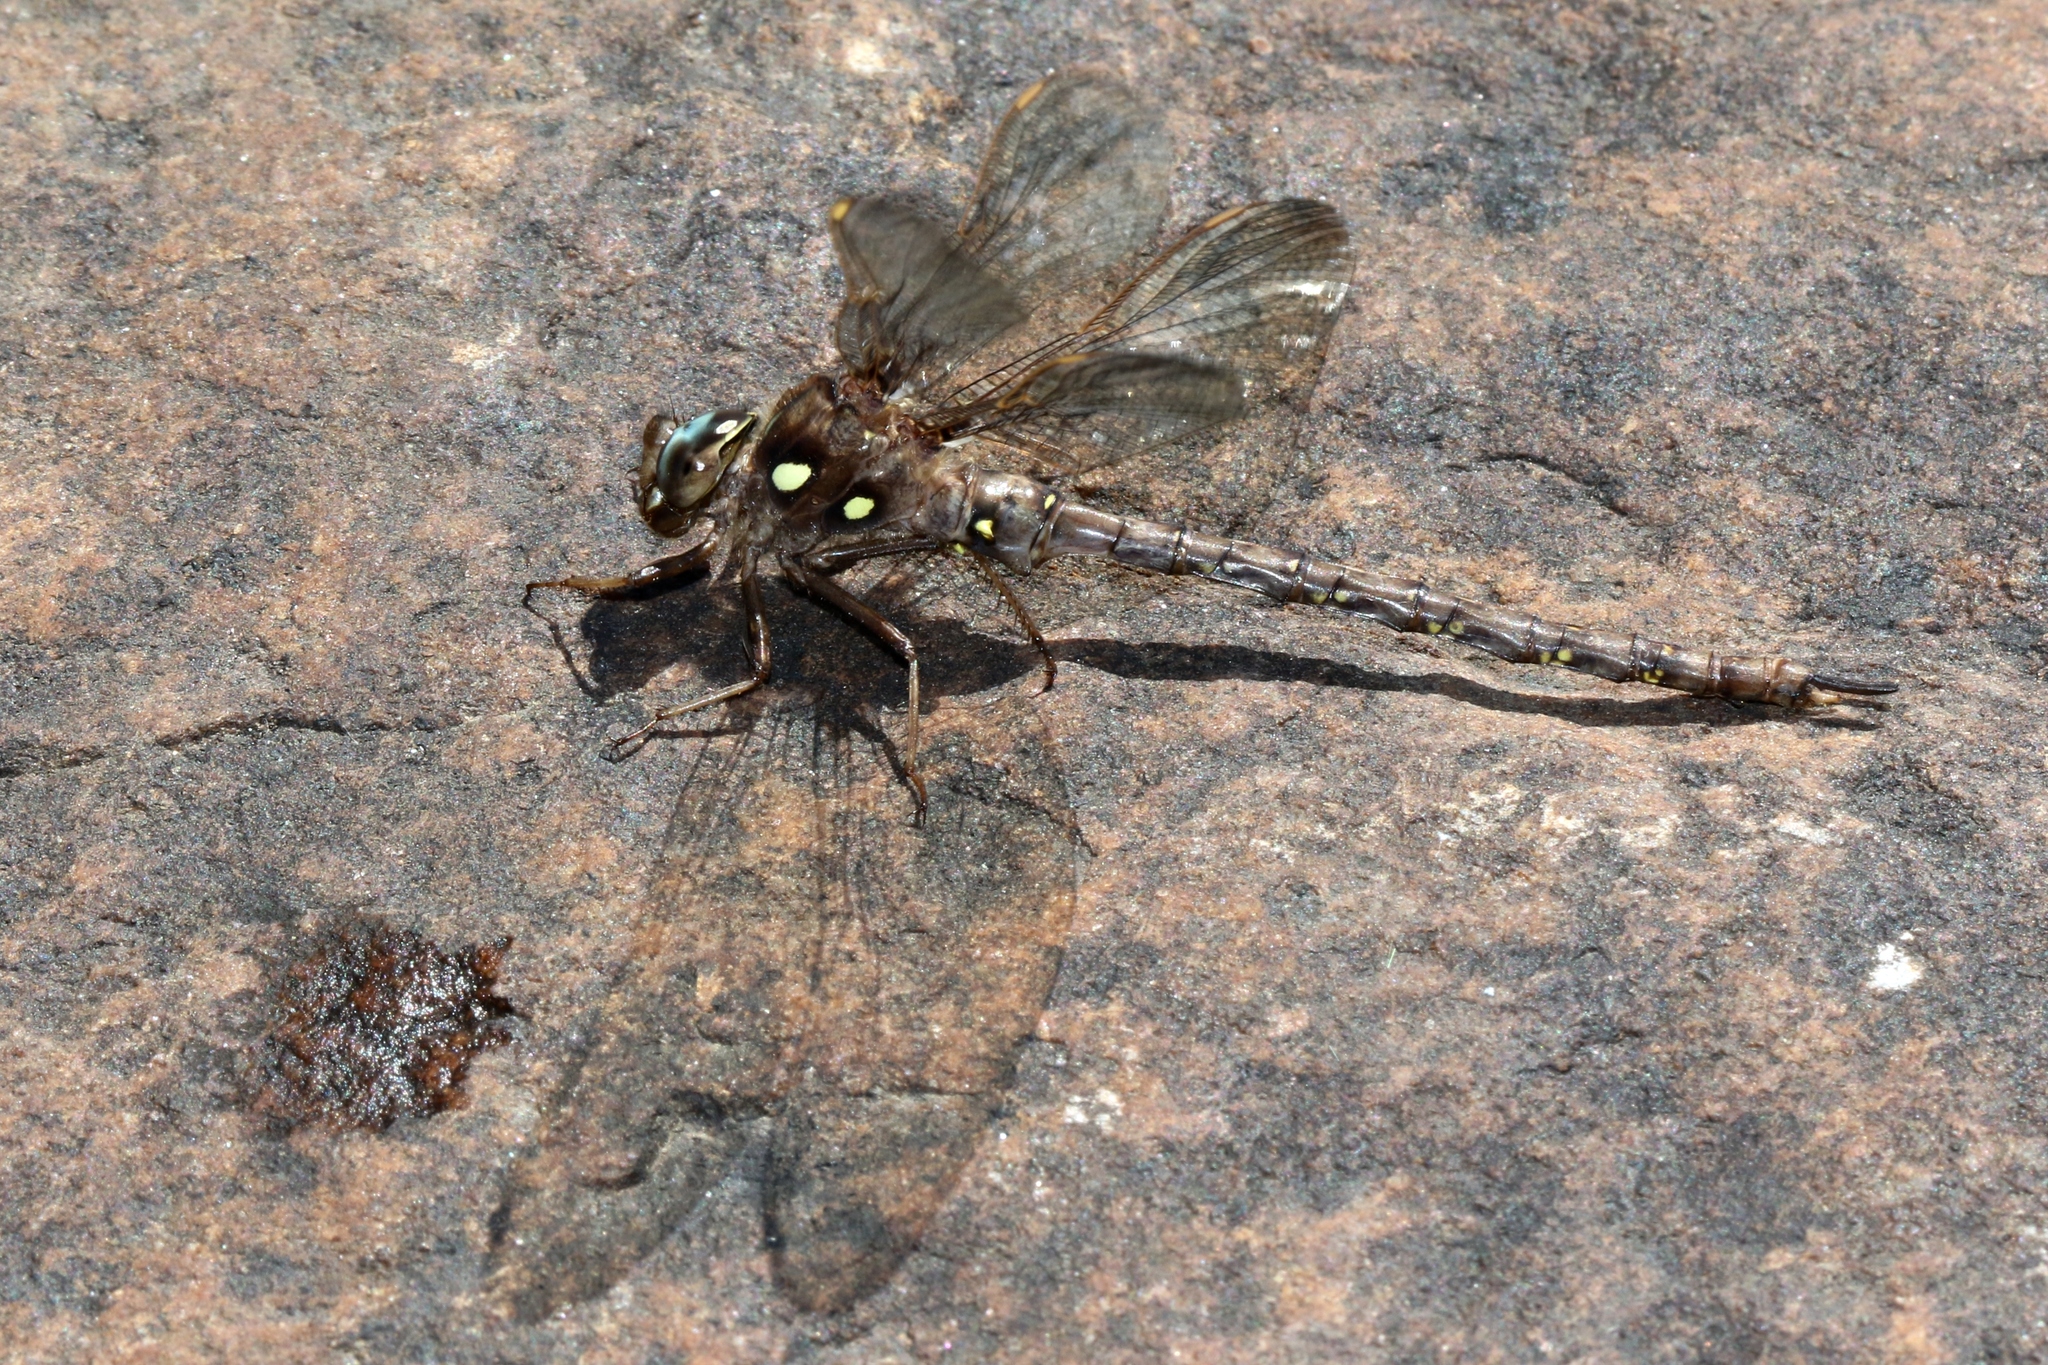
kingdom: Animalia
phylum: Arthropoda
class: Insecta
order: Odonata
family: Aeshnidae
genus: Boyeria
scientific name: Boyeria vinosa
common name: Fawn darner
